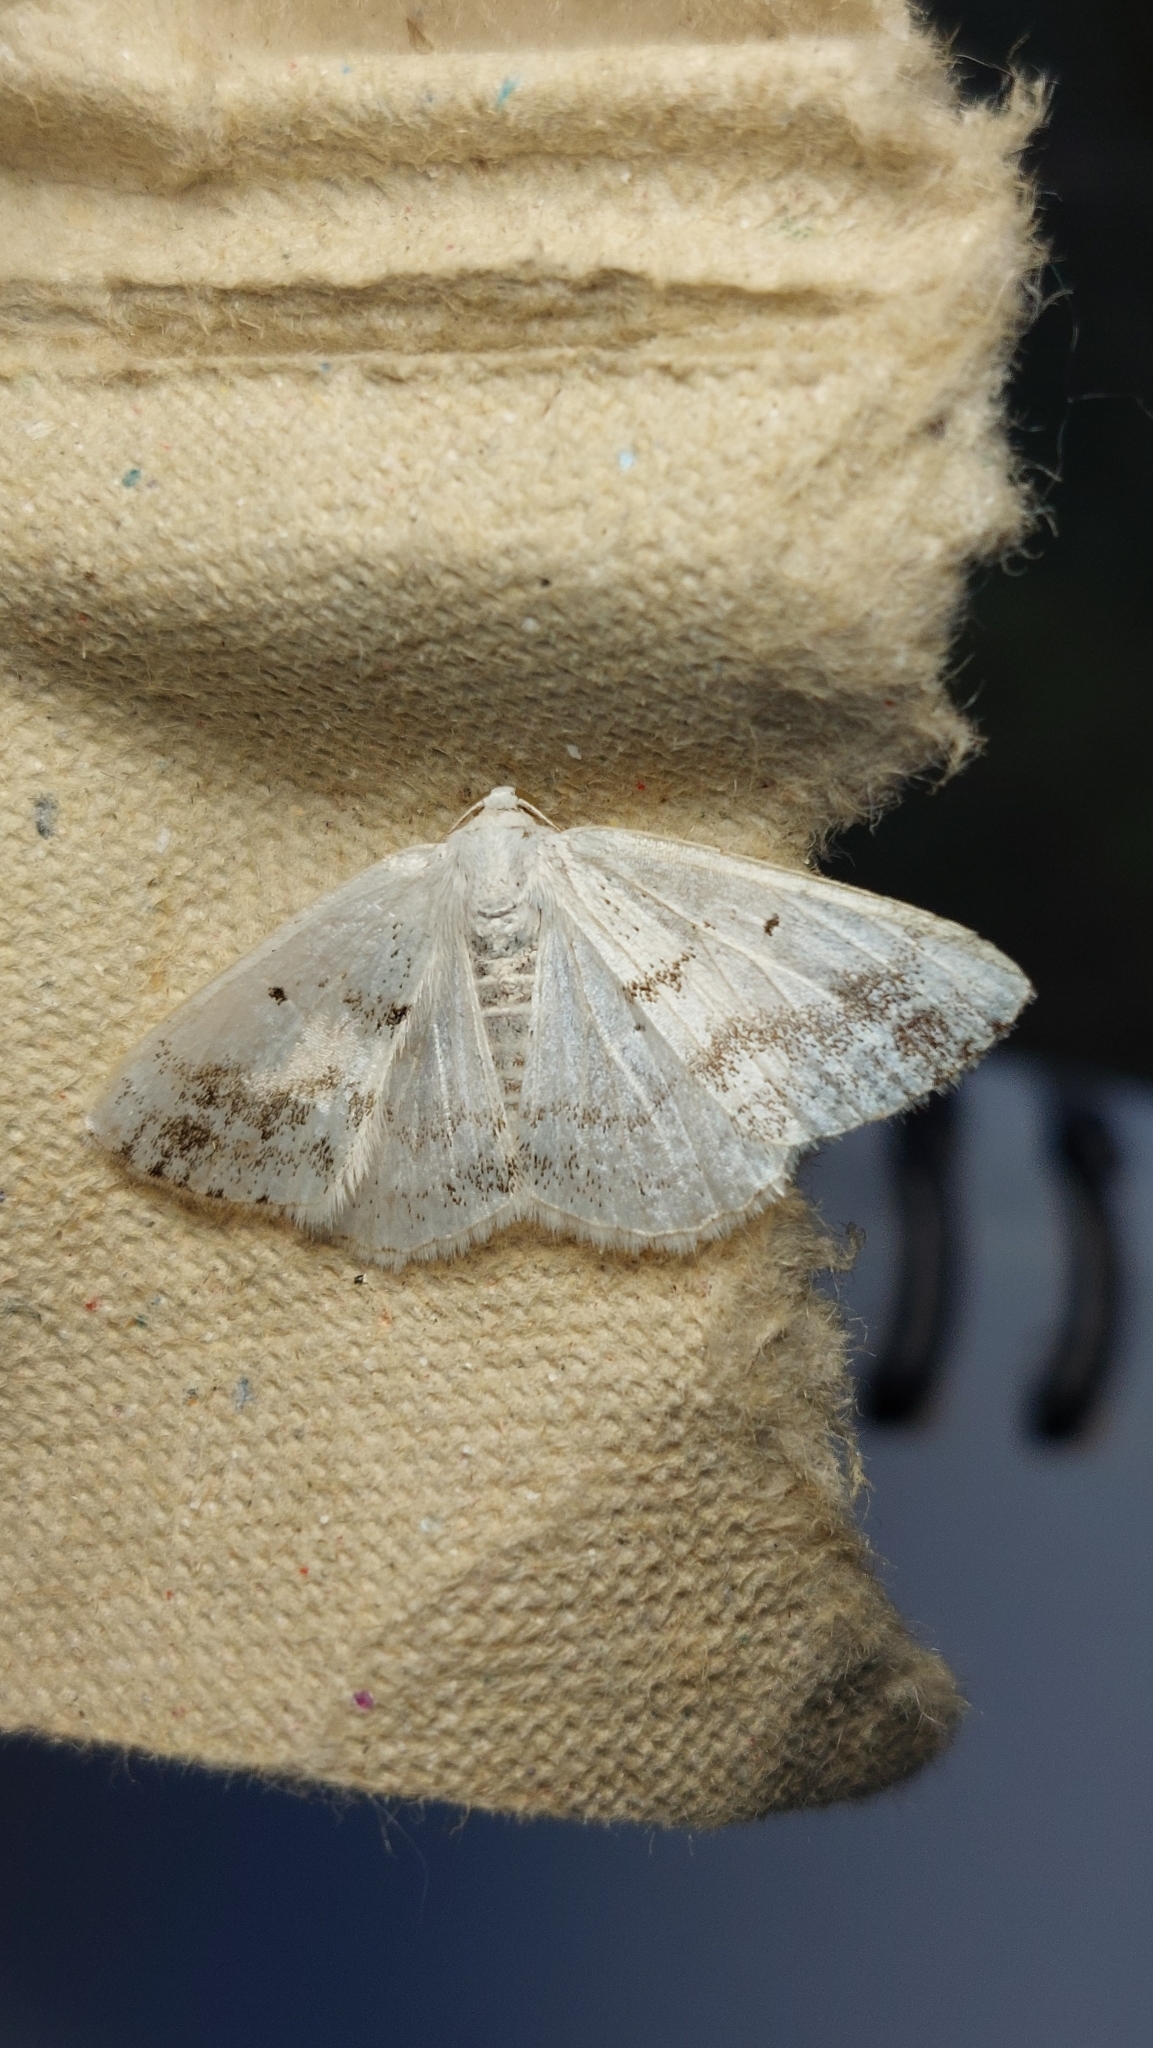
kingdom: Animalia
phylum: Arthropoda
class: Insecta
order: Lepidoptera
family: Geometridae
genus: Lomographa
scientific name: Lomographa temerata
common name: Clouded silver
